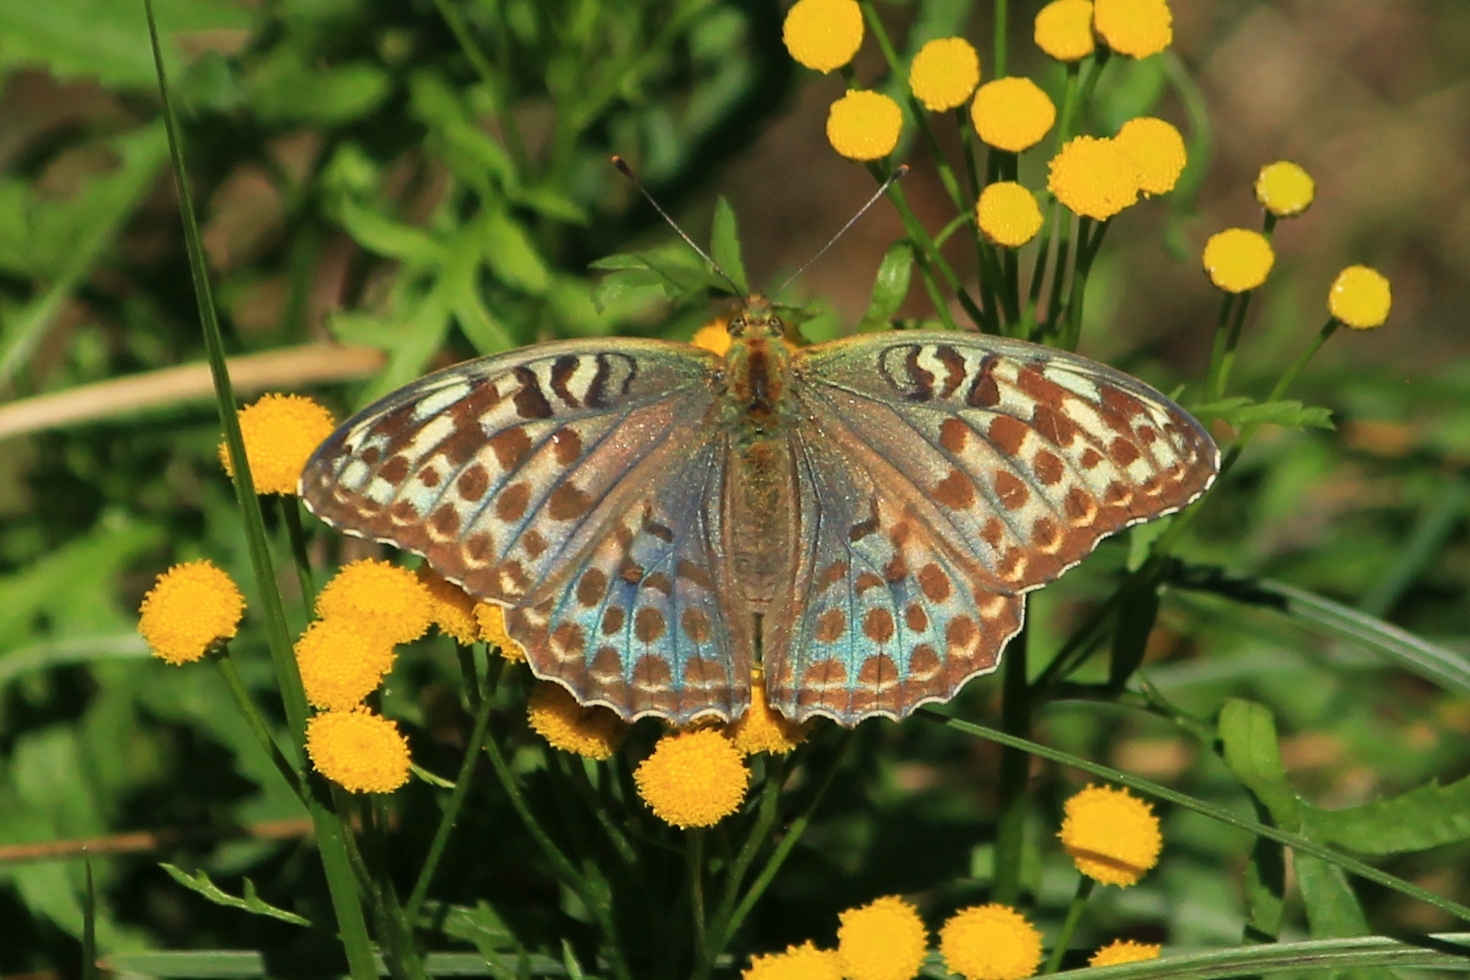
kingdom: Animalia
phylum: Arthropoda
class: Insecta
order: Lepidoptera
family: Nymphalidae
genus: Argynnis
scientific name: Argynnis paphia
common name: Silver-washed fritillary
